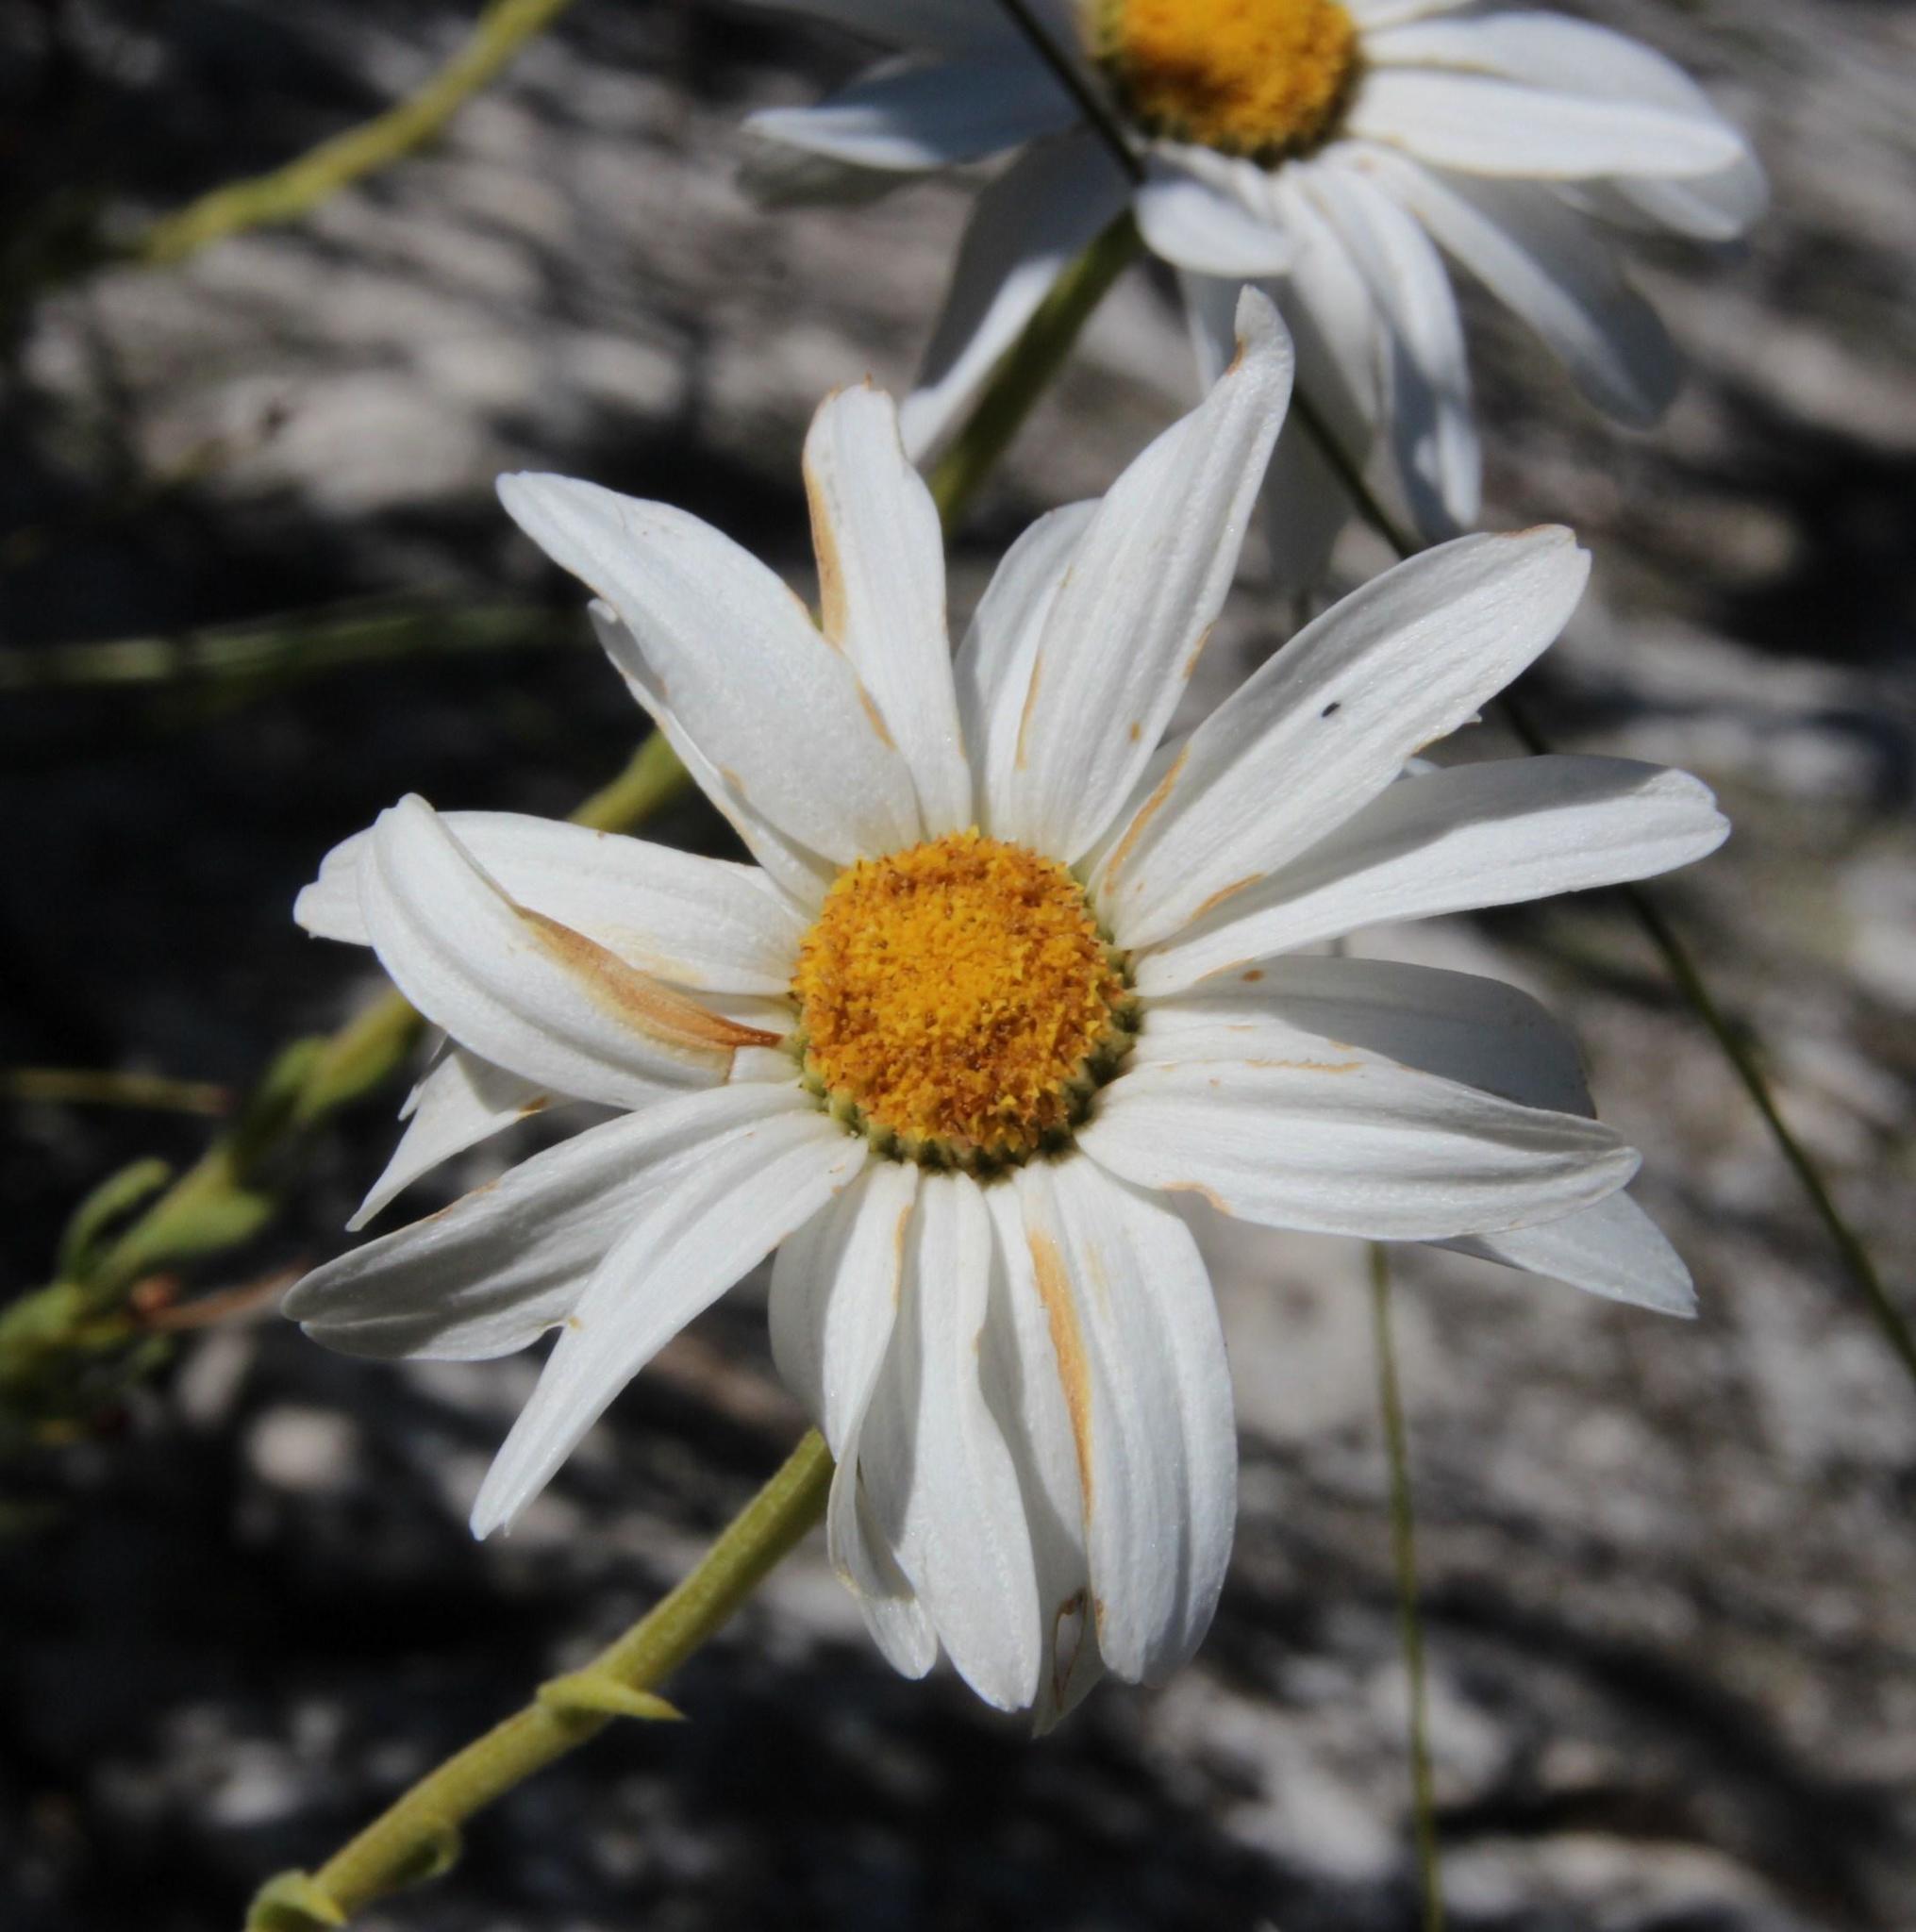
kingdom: Plantae
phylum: Tracheophyta
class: Magnoliopsida
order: Asterales
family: Asteraceae
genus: Osmitopsis
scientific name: Osmitopsis afra
